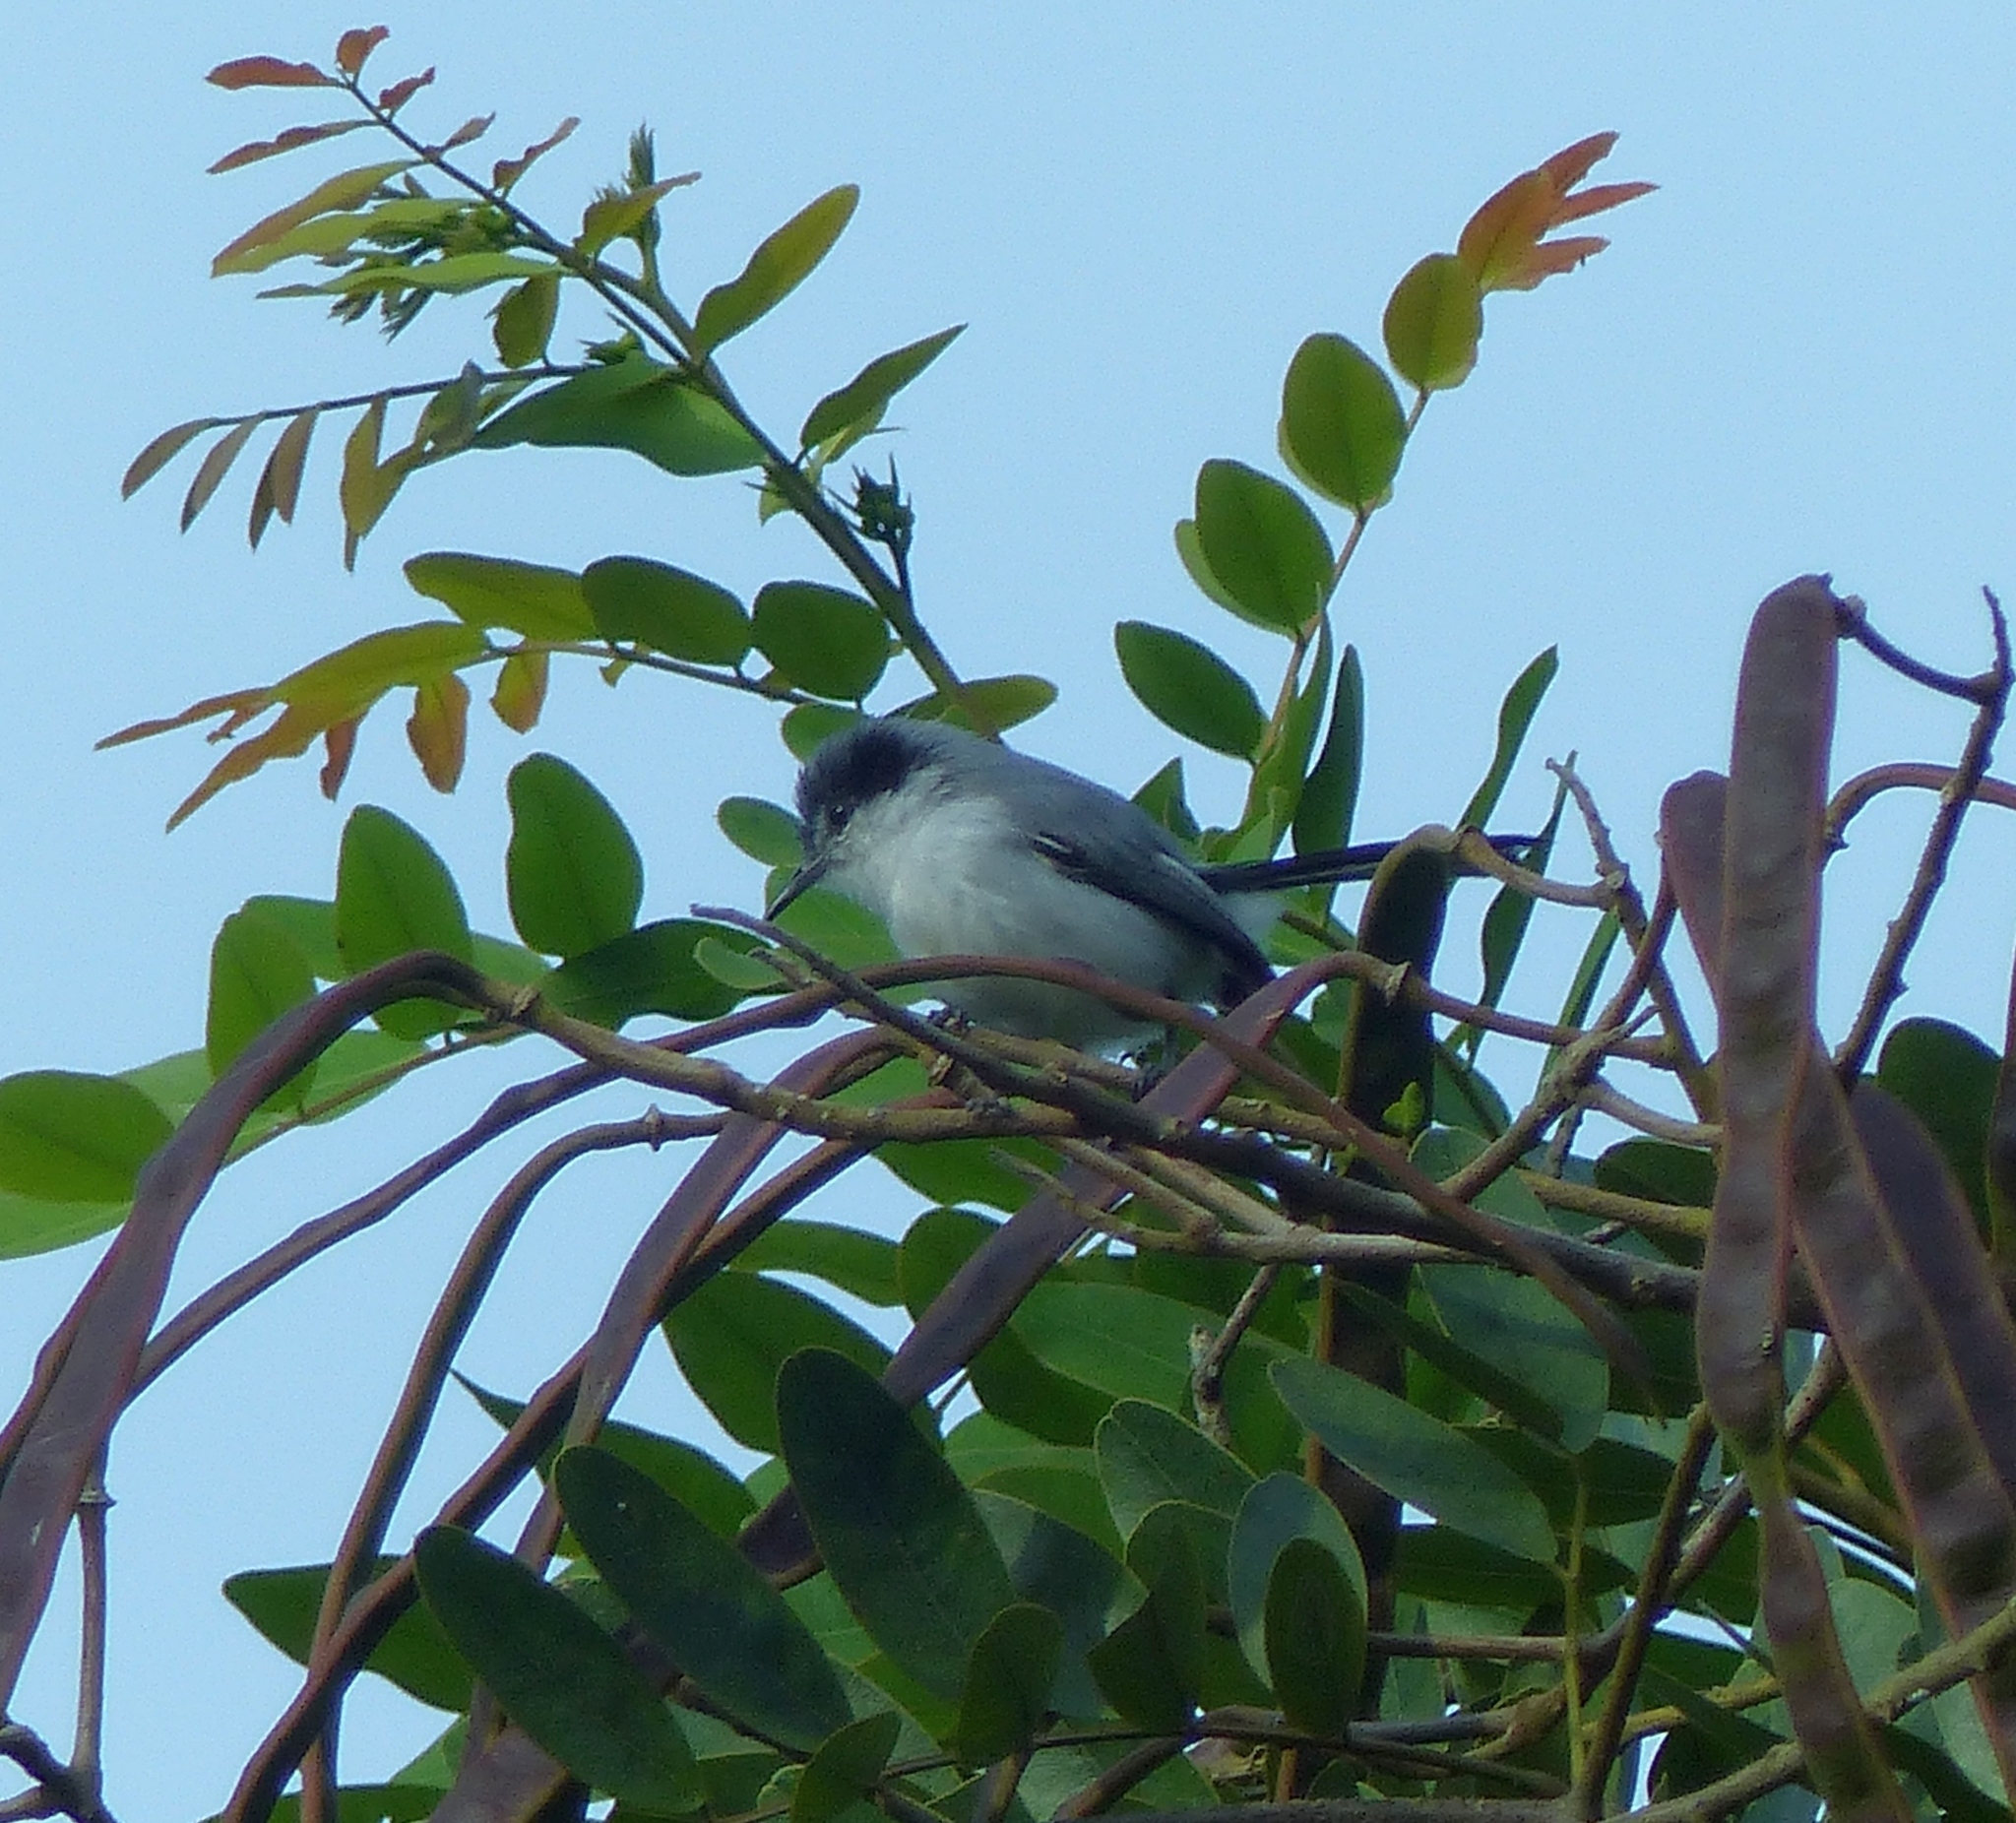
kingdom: Animalia
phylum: Chordata
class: Aves
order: Passeriformes
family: Polioptilidae
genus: Polioptila
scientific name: Polioptila plumbea
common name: Tropical gnatcatcher
